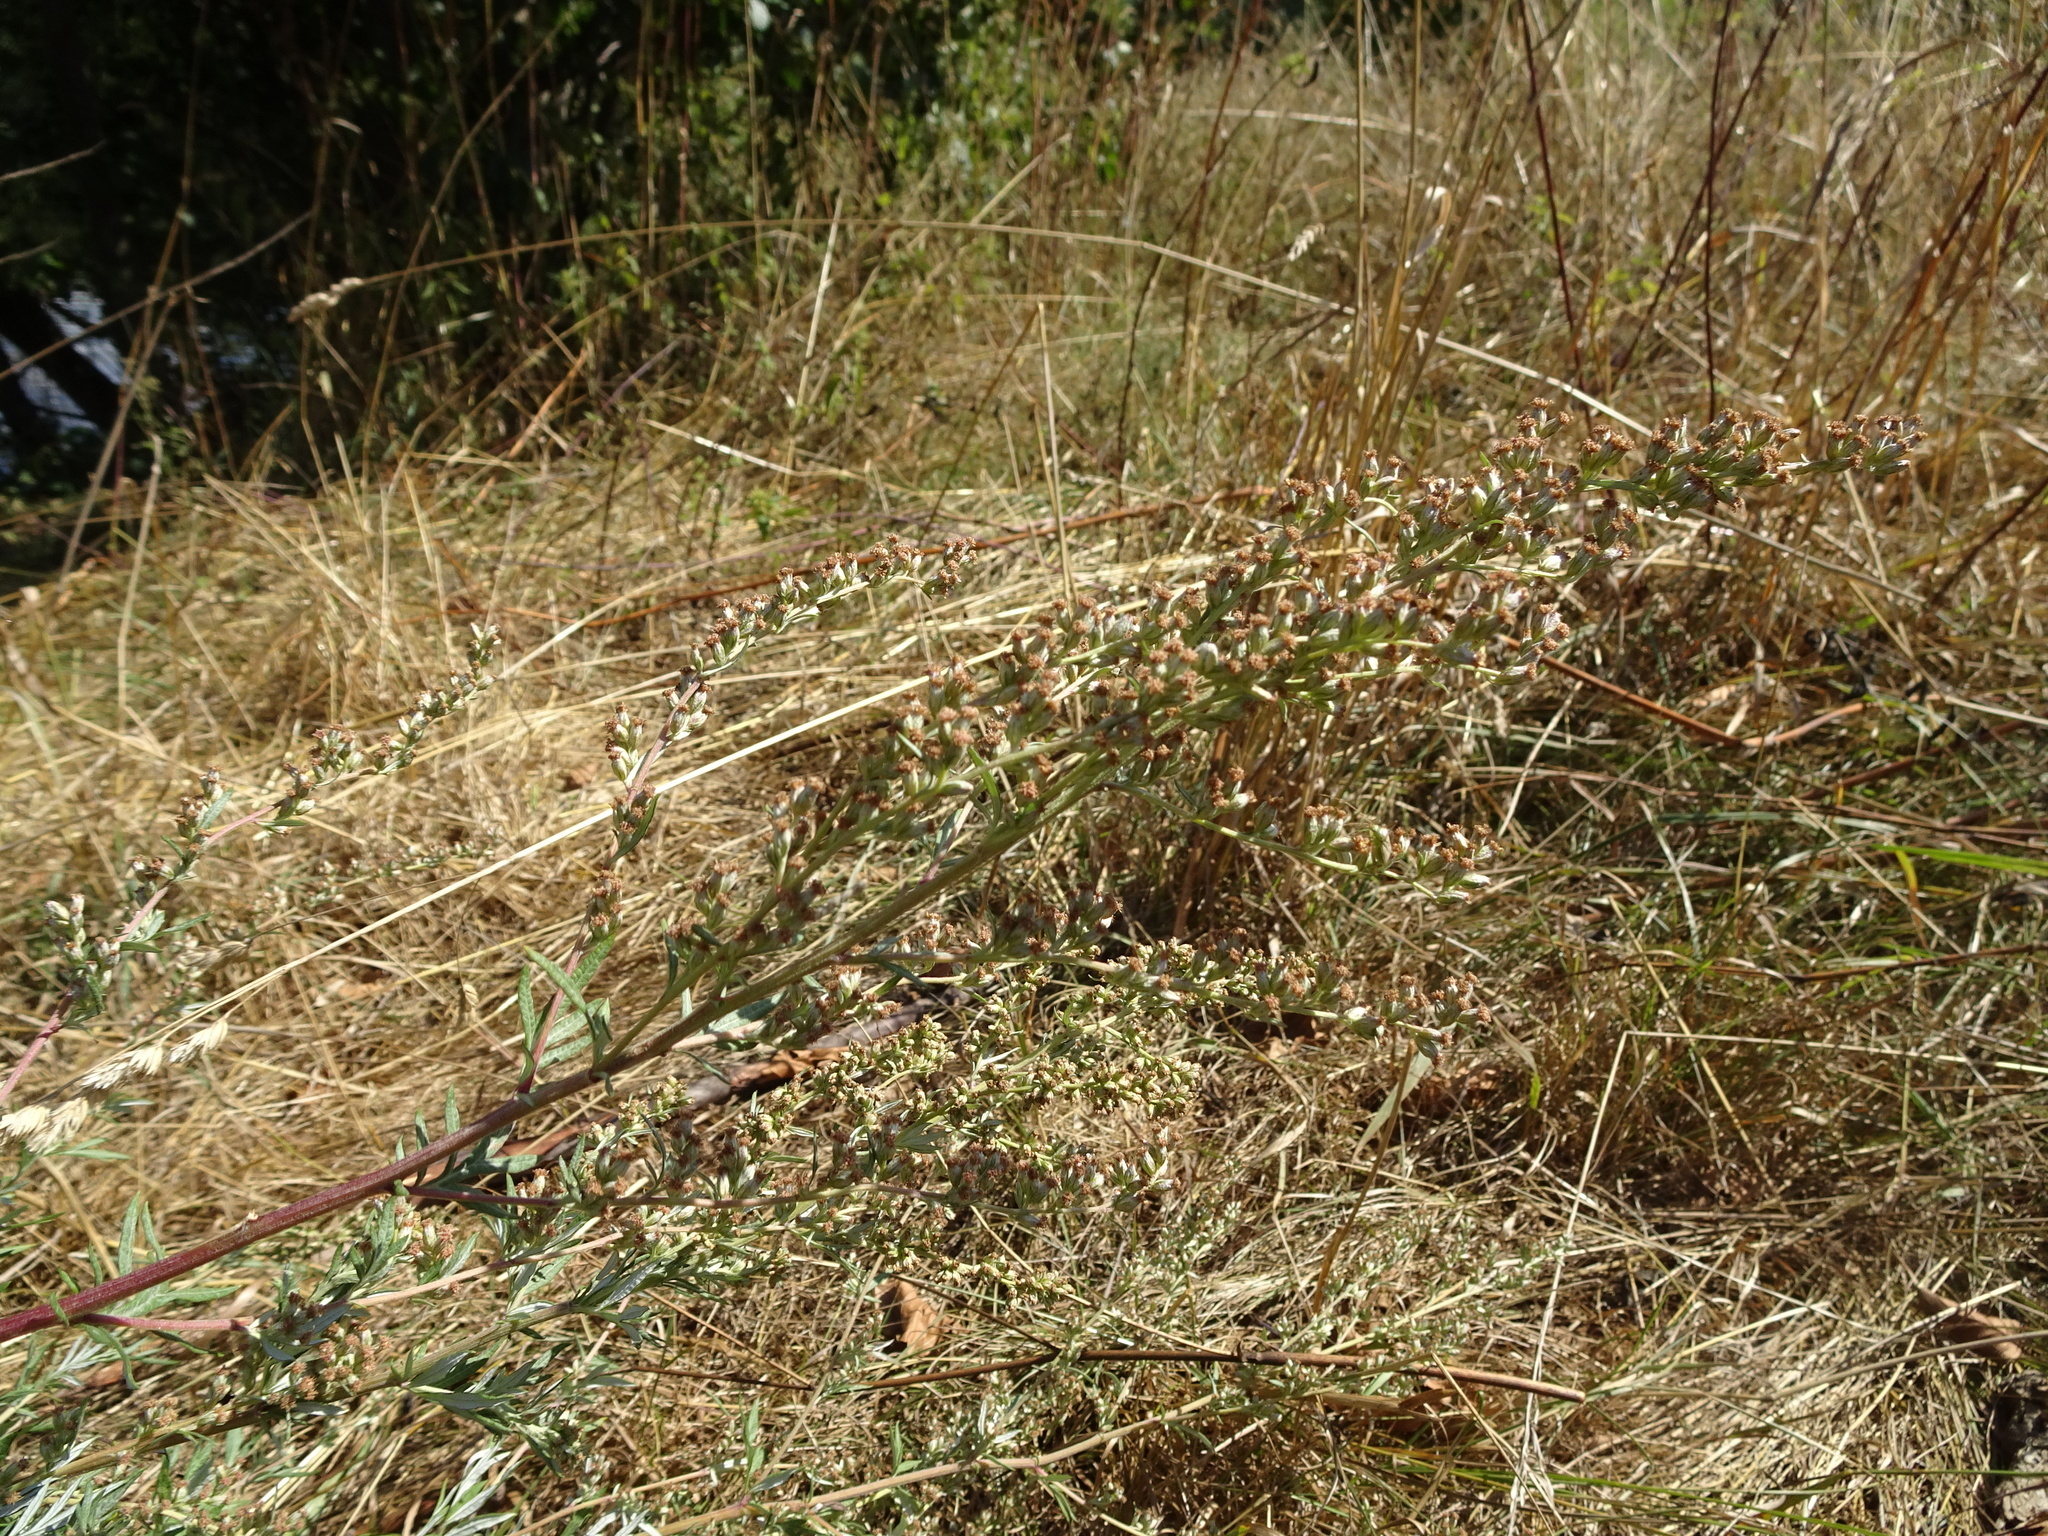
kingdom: Plantae
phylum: Tracheophyta
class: Magnoliopsida
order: Asterales
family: Asteraceae
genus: Artemisia
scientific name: Artemisia vulgaris
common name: Mugwort
